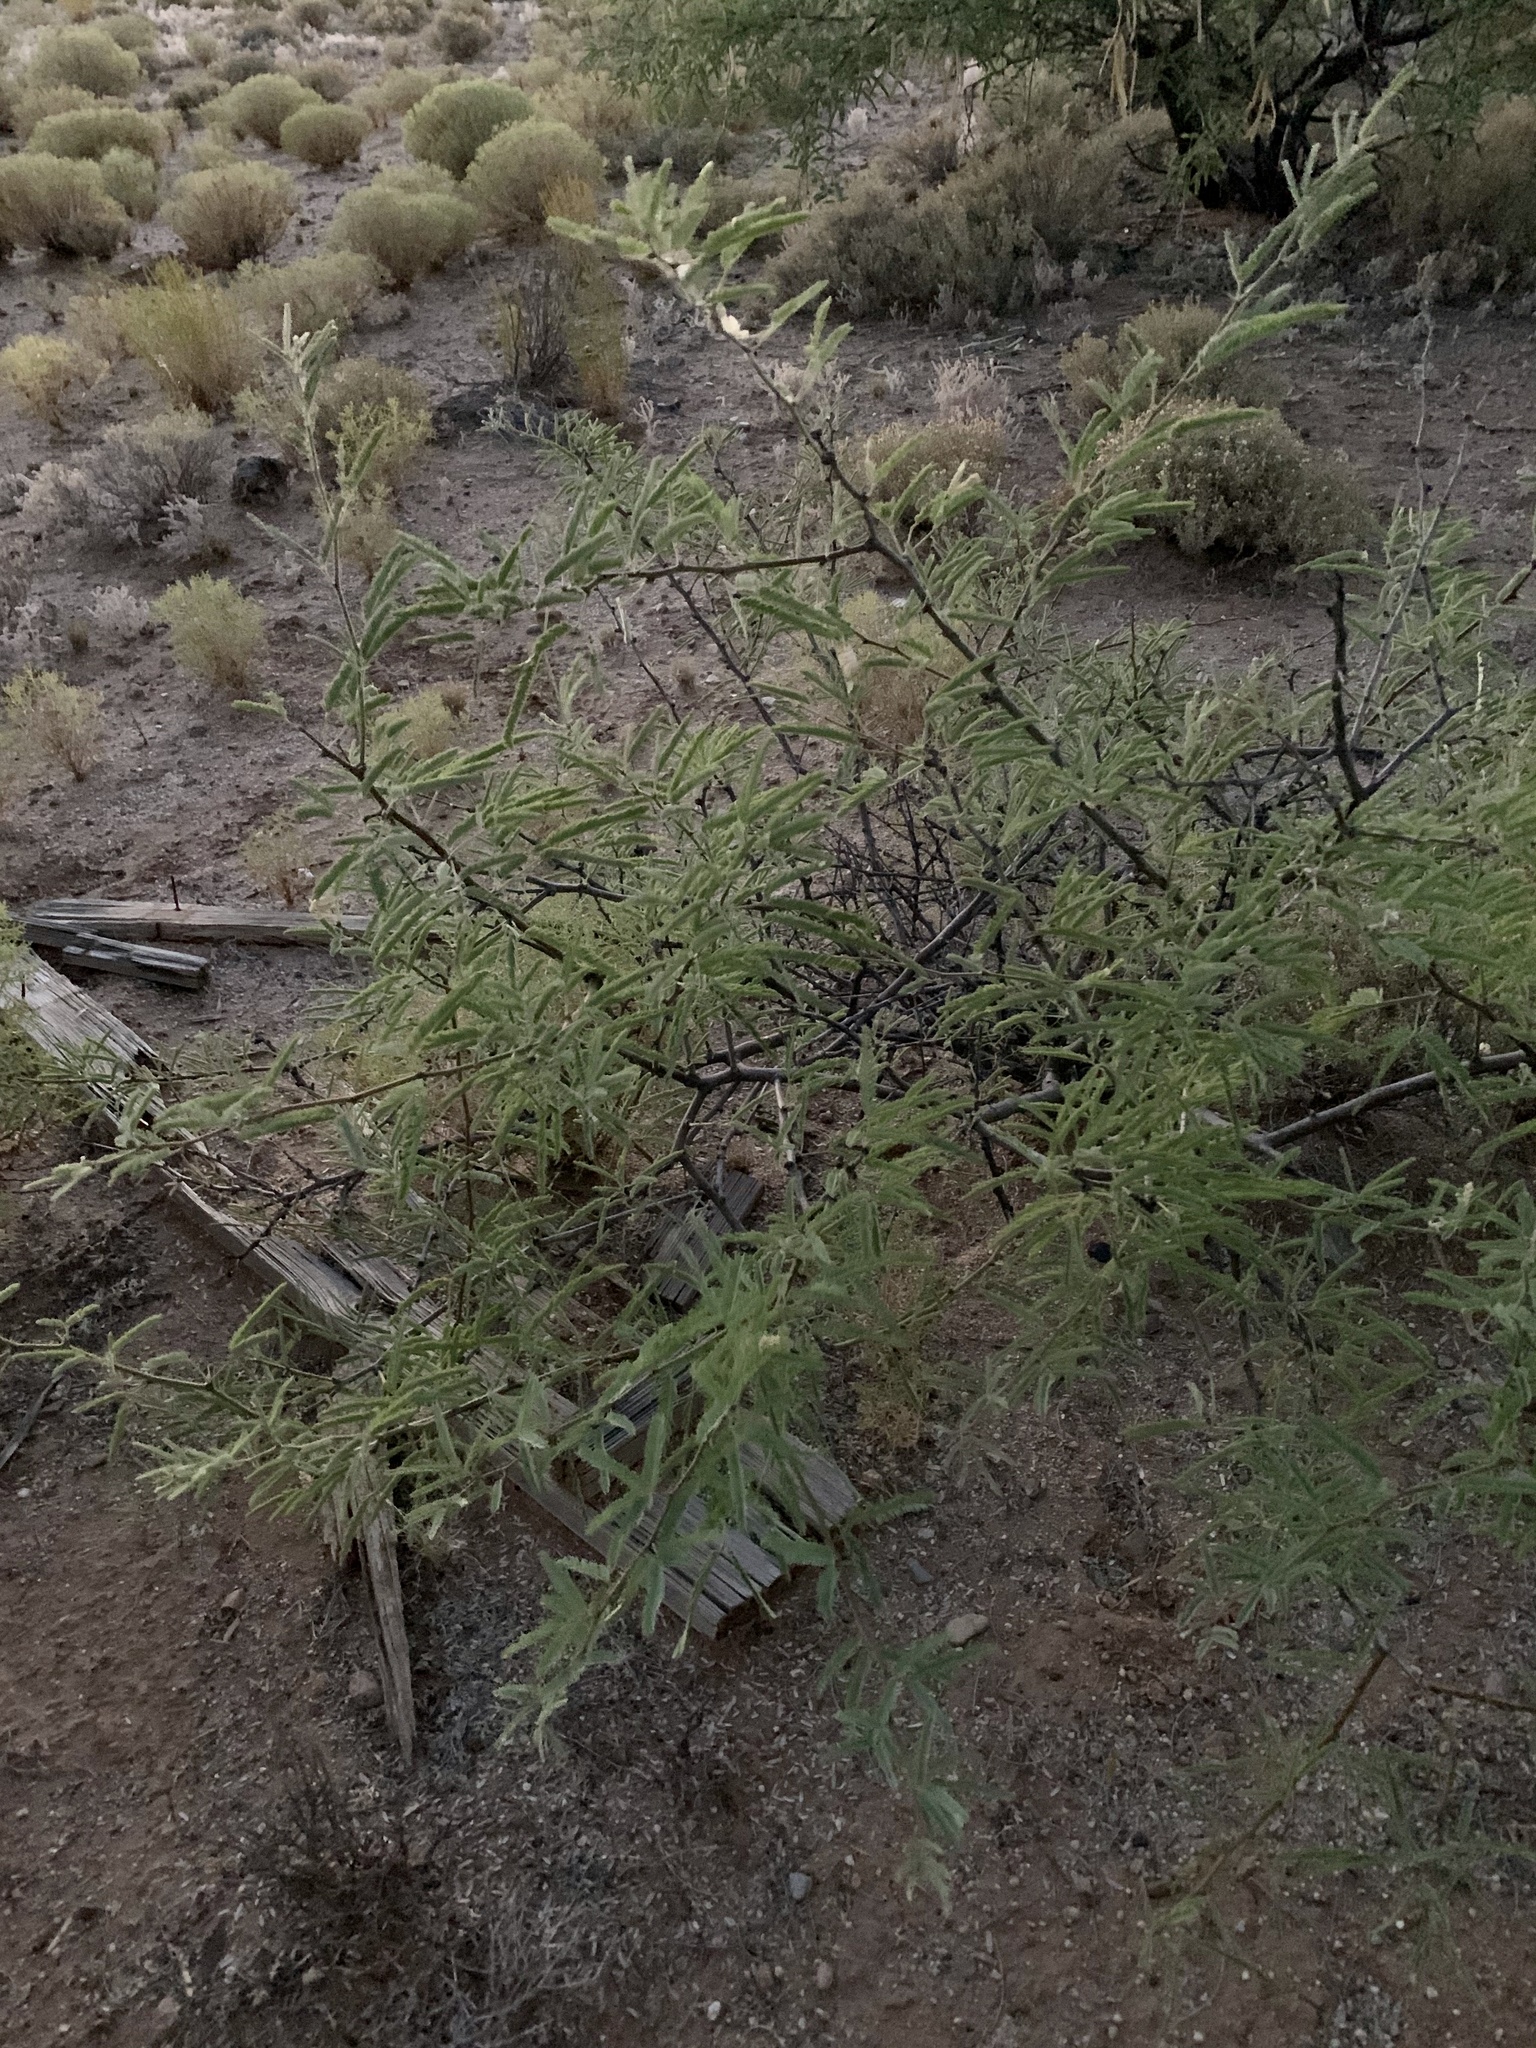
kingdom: Plantae
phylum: Tracheophyta
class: Magnoliopsida
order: Fabales
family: Fabaceae
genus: Prosopis
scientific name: Prosopis velutina
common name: Velvet mesquite
